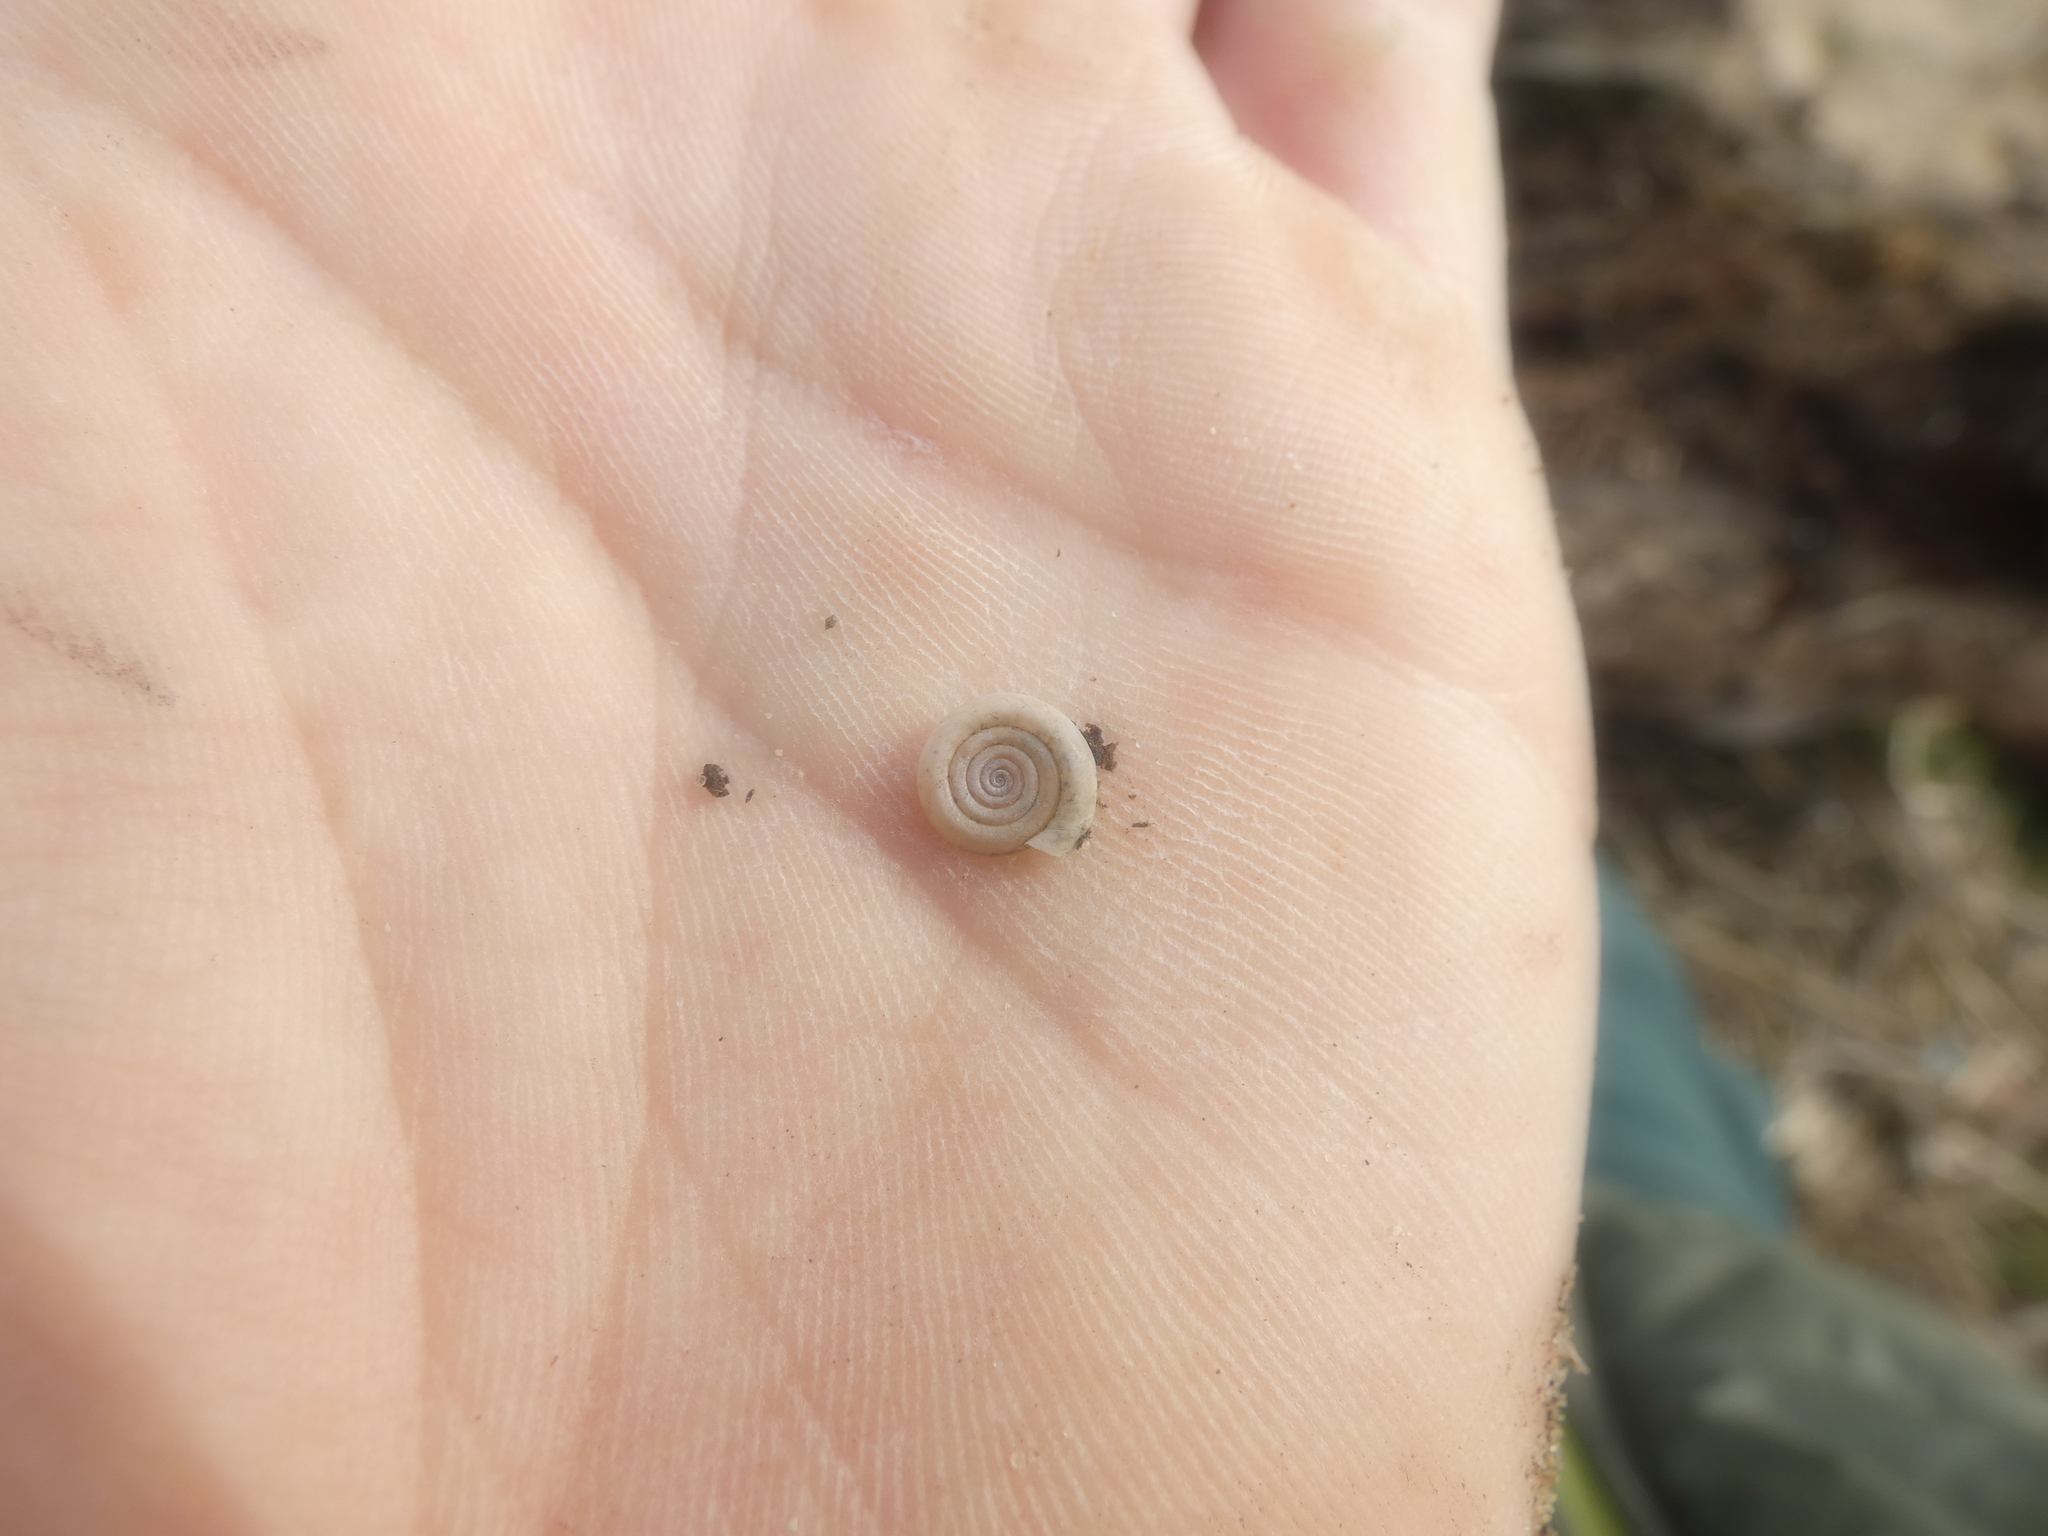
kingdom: Animalia
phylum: Mollusca
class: Gastropoda
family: Planorbidae
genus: Anisus
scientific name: Anisus vortex
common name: Whirlpool ram's horn snail
